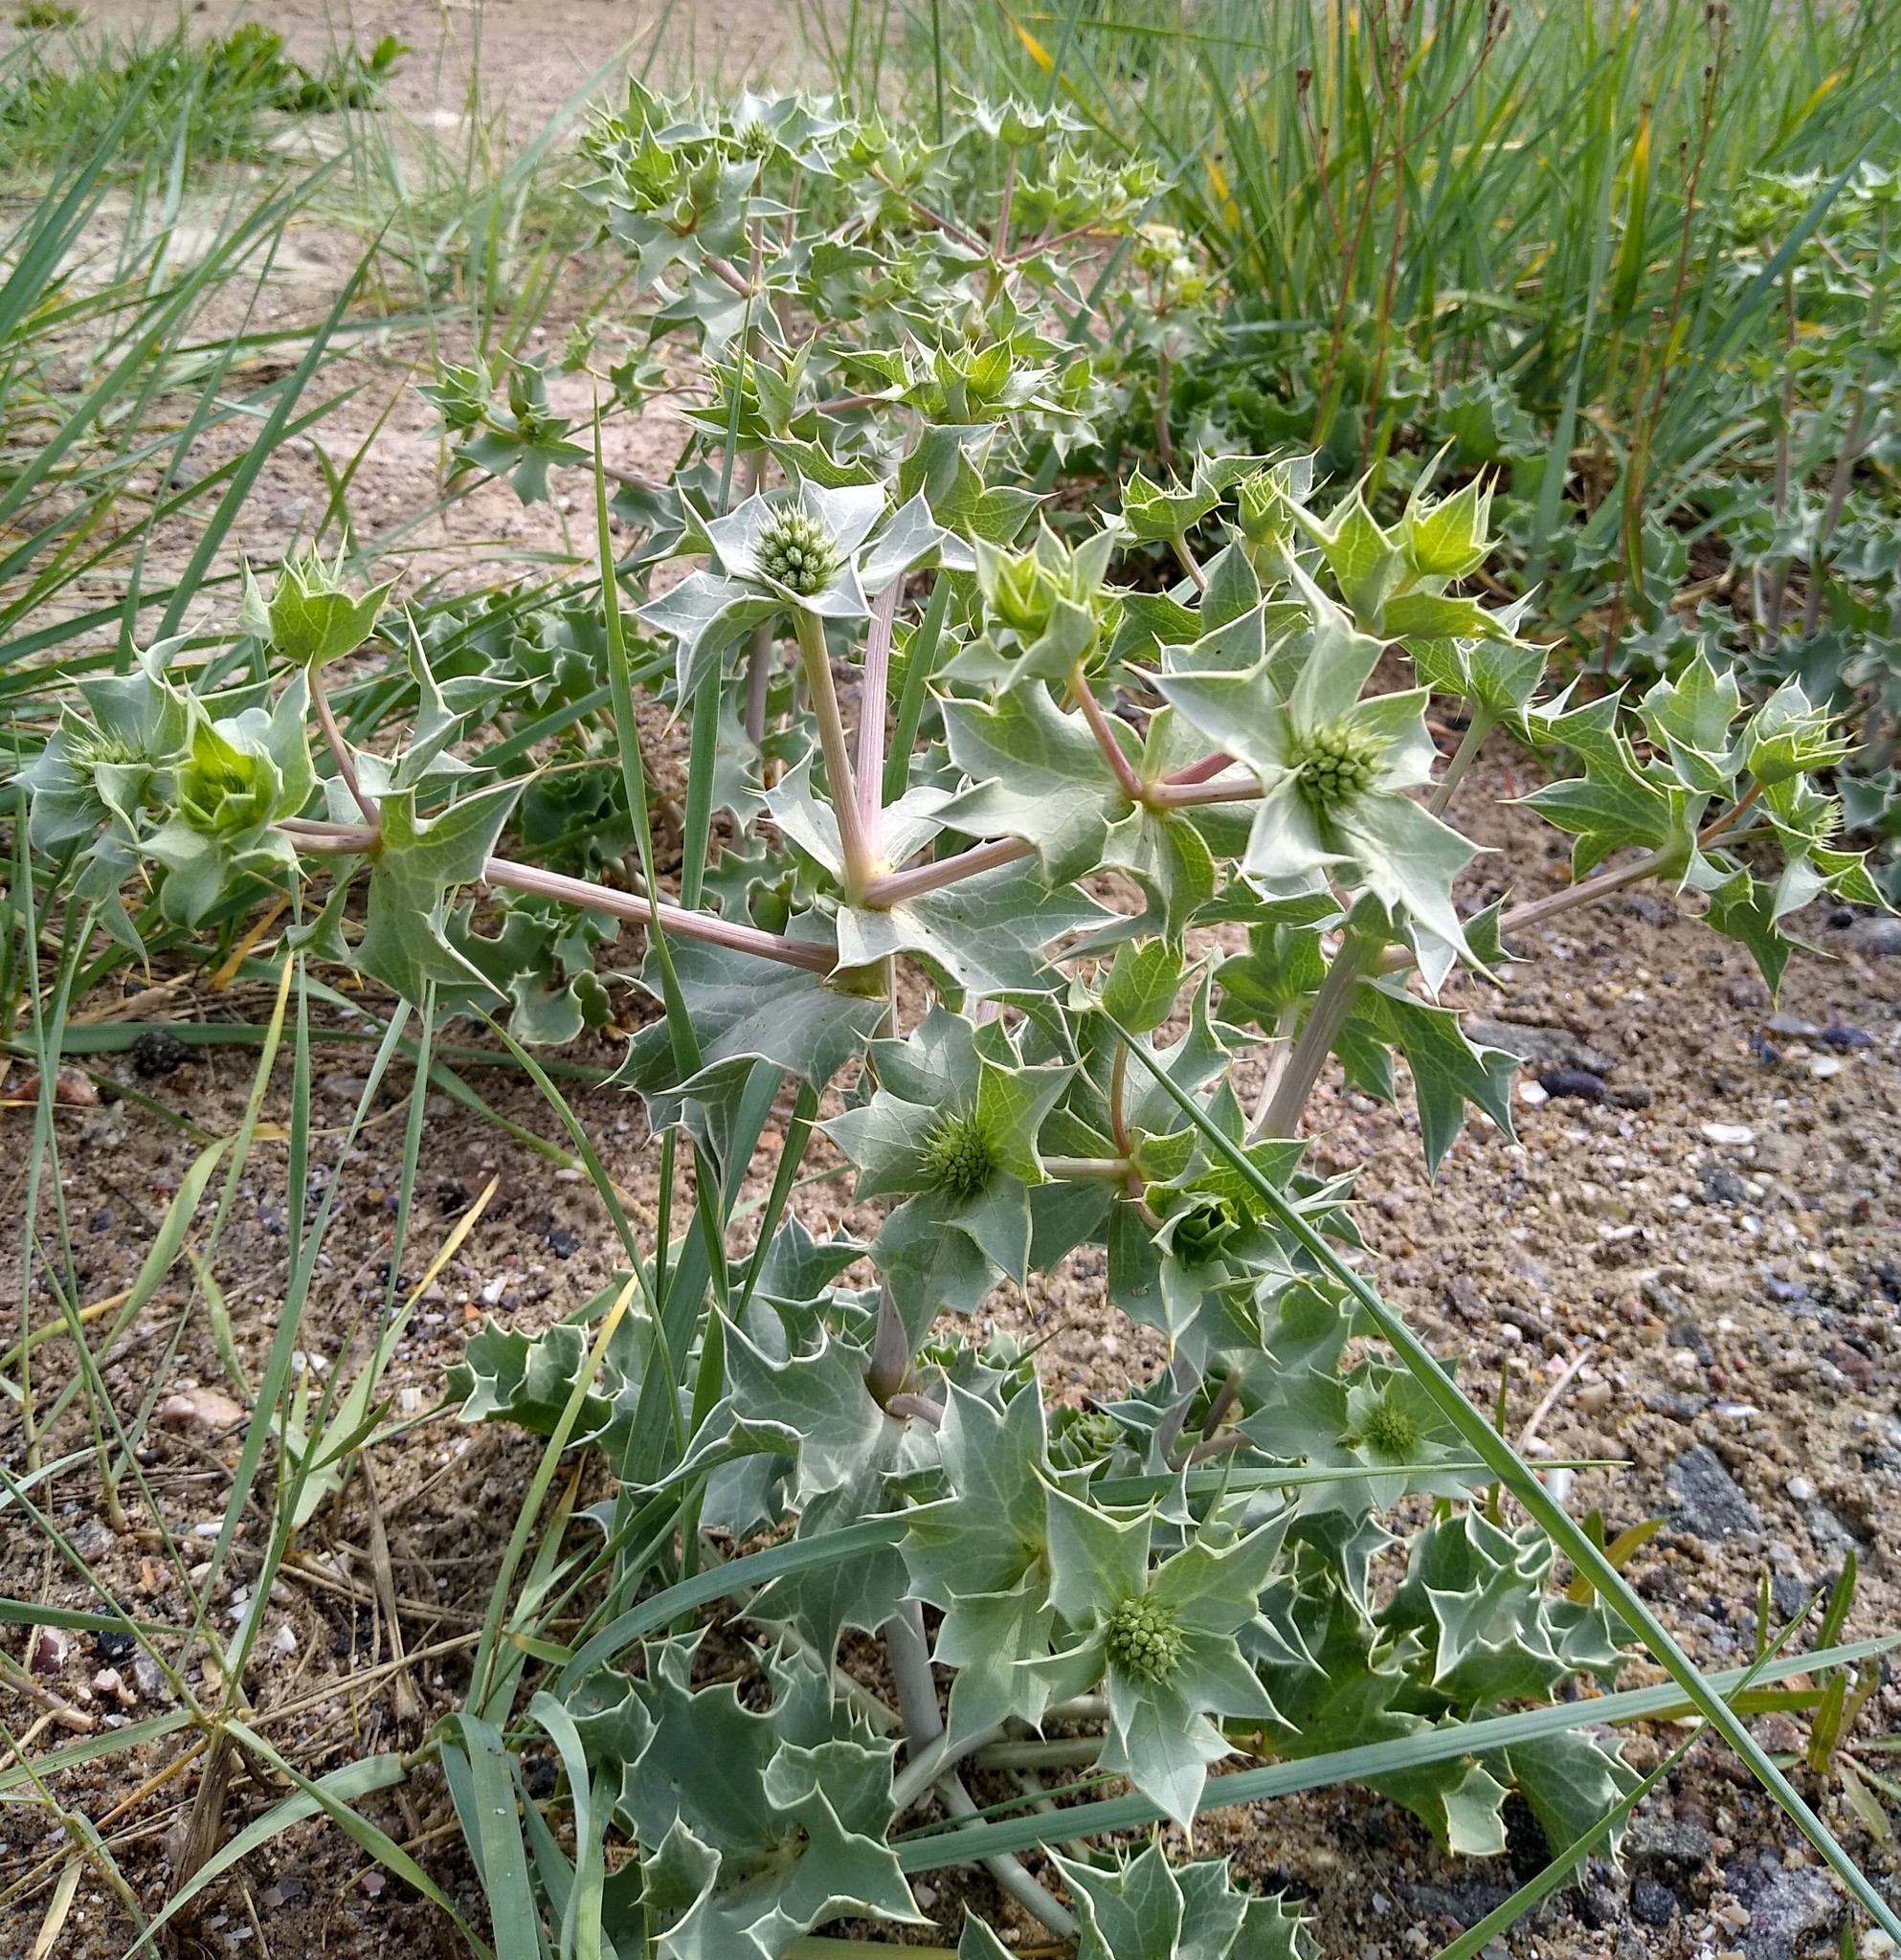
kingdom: Plantae
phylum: Tracheophyta
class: Magnoliopsida
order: Apiales
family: Apiaceae
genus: Eryngium
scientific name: Eryngium maritimum
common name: Sea-holly
